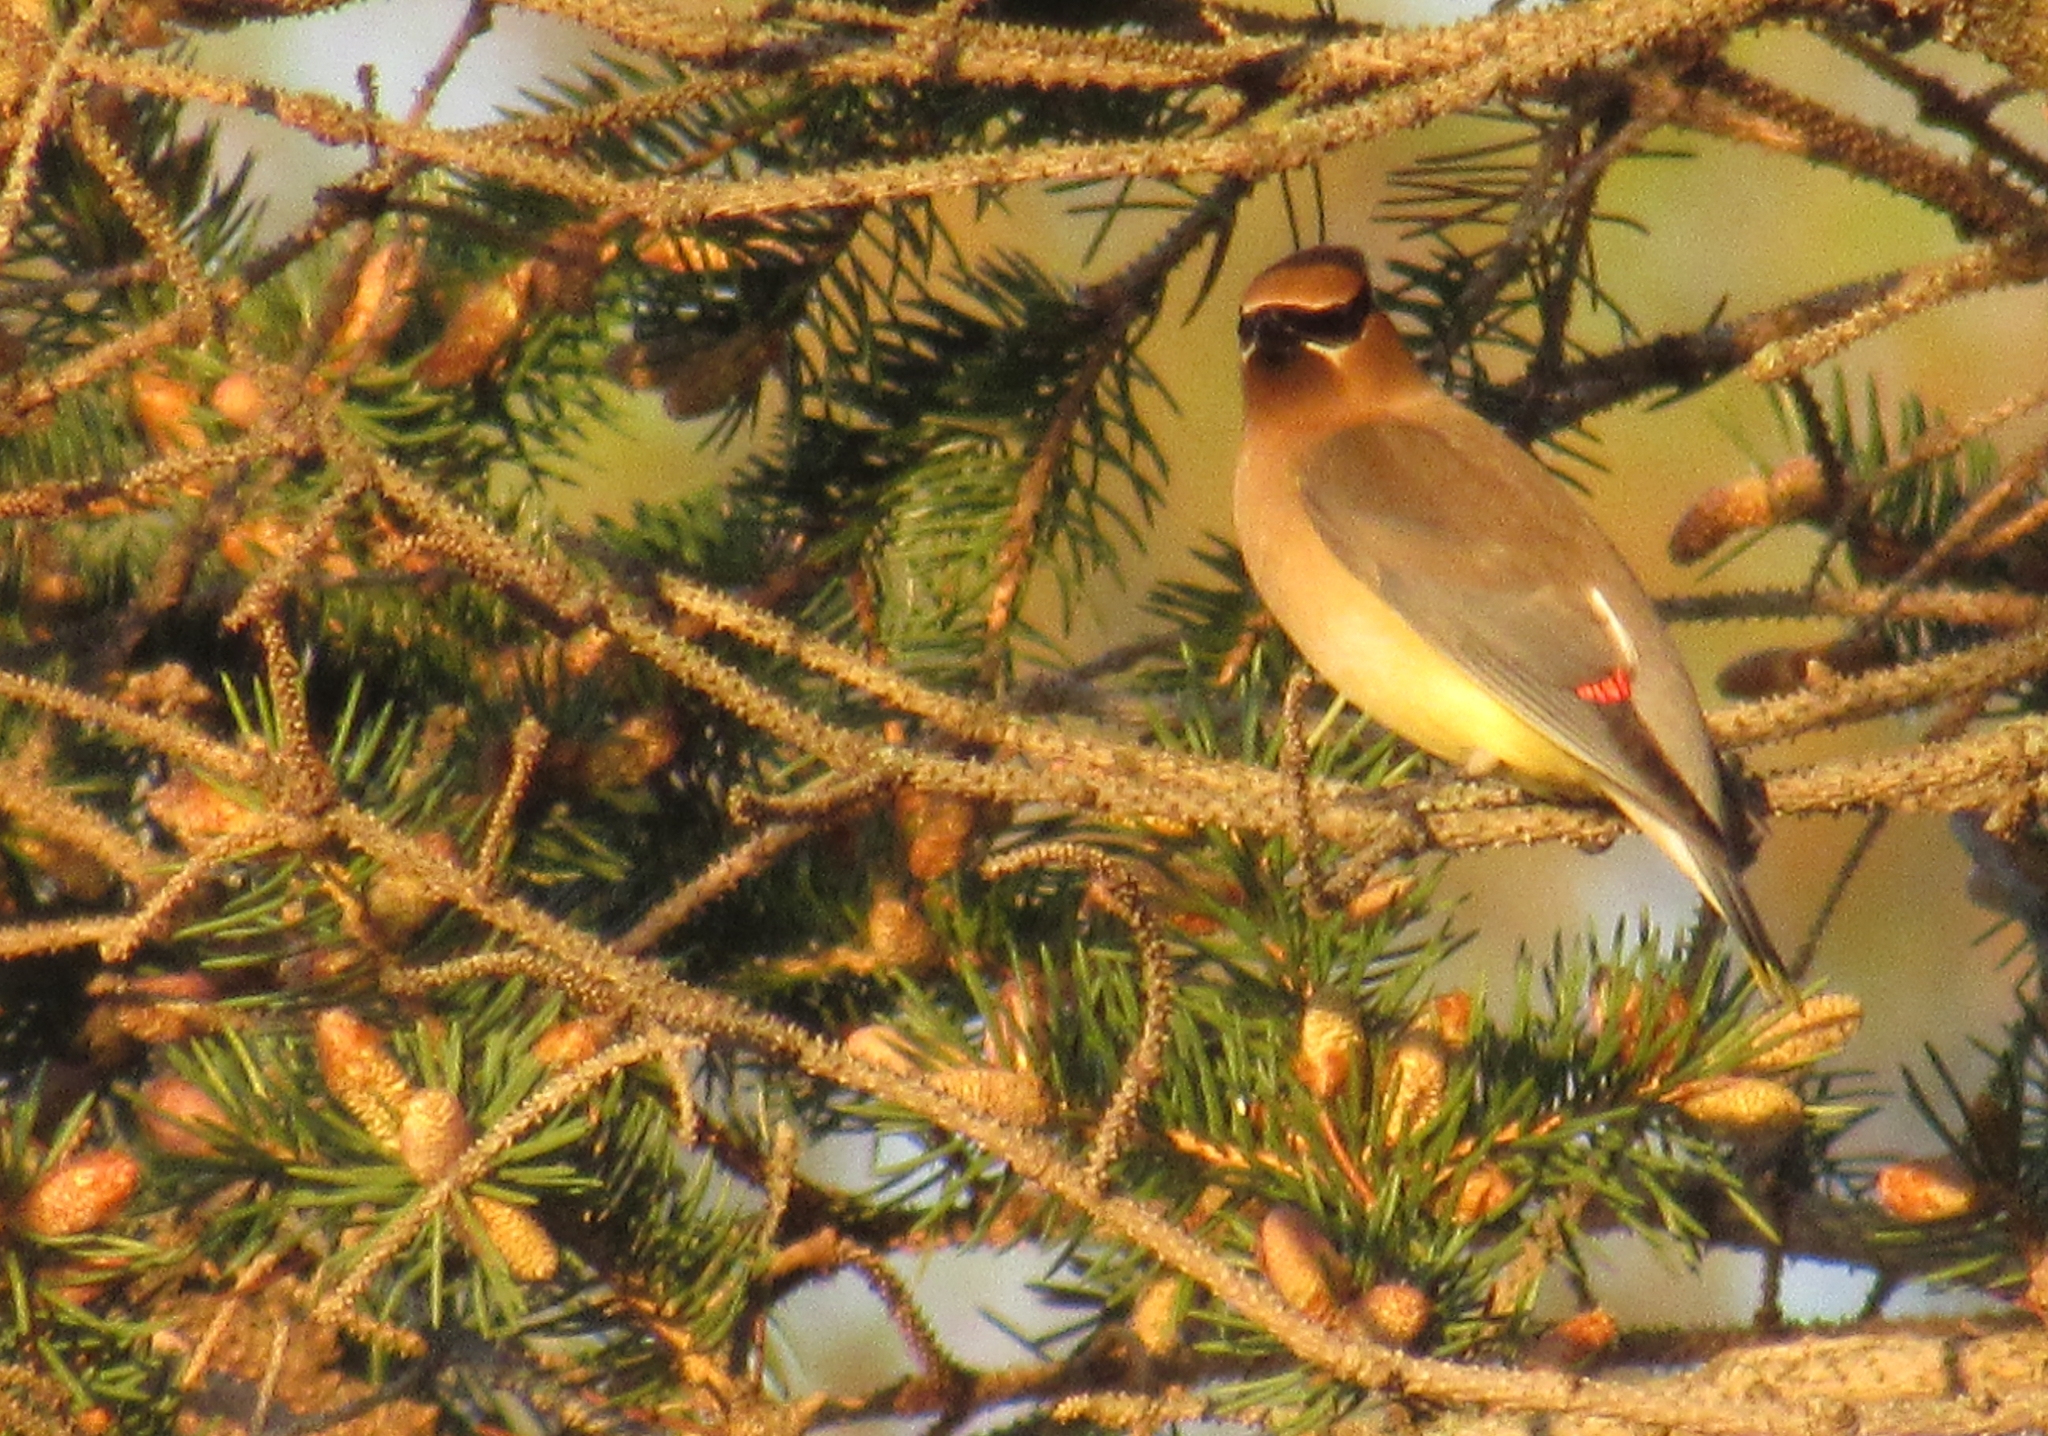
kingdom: Animalia
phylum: Chordata
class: Aves
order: Passeriformes
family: Bombycillidae
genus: Bombycilla
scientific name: Bombycilla cedrorum
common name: Cedar waxwing
